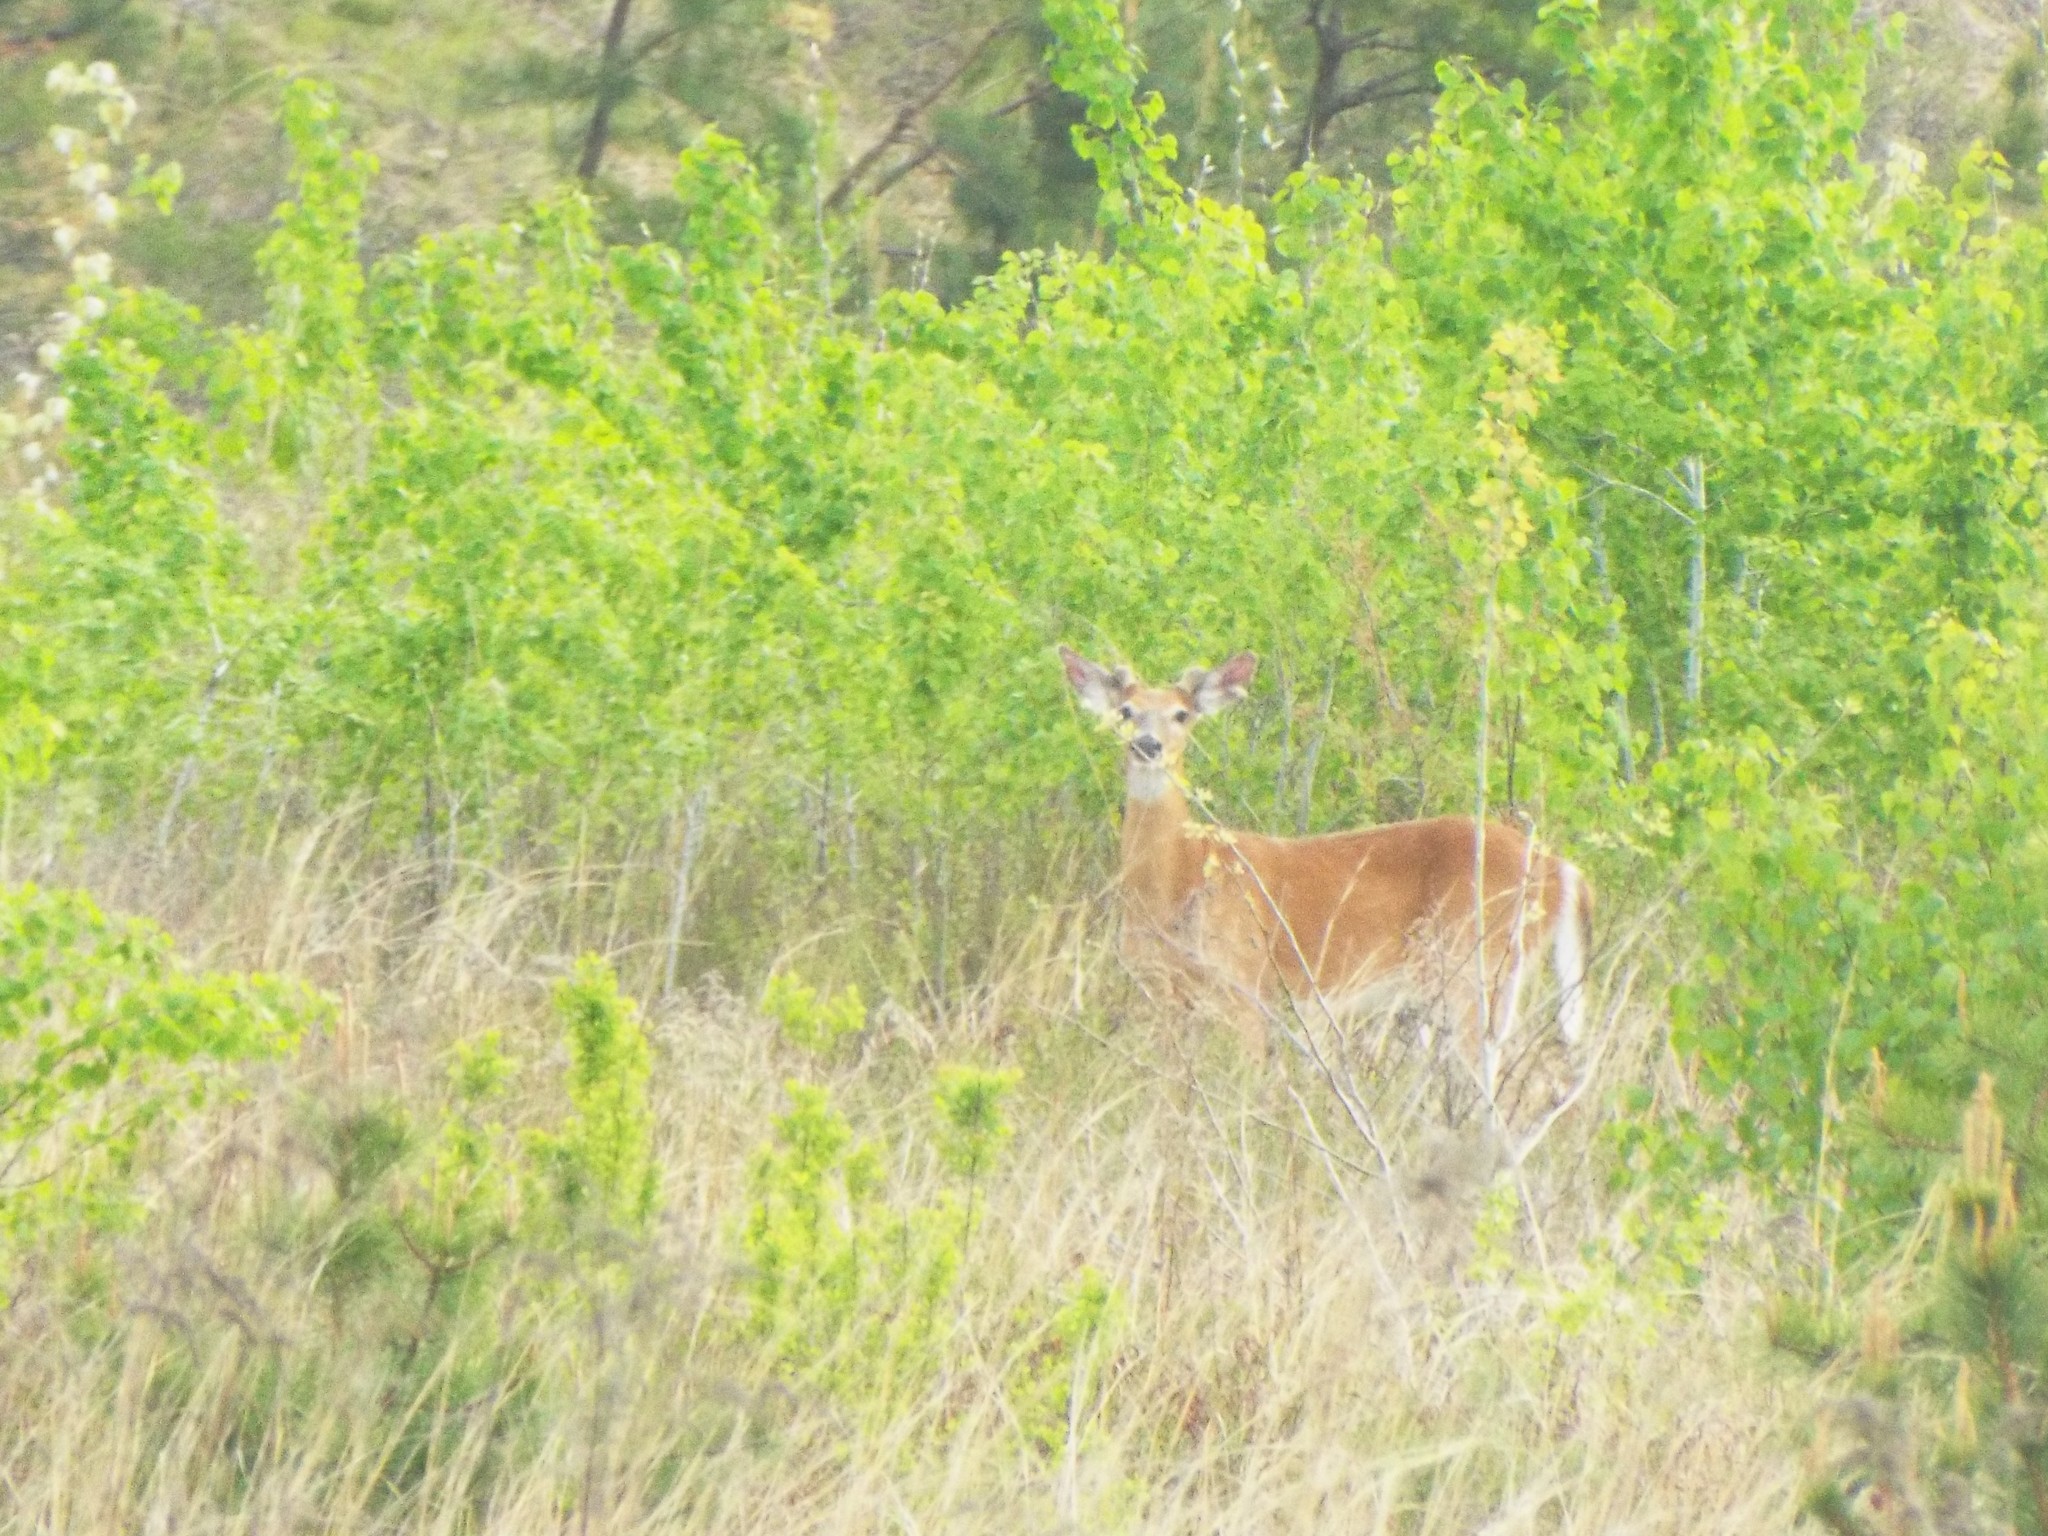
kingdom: Animalia
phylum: Chordata
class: Mammalia
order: Artiodactyla
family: Cervidae
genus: Odocoileus
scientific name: Odocoileus virginianus
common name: White-tailed deer
